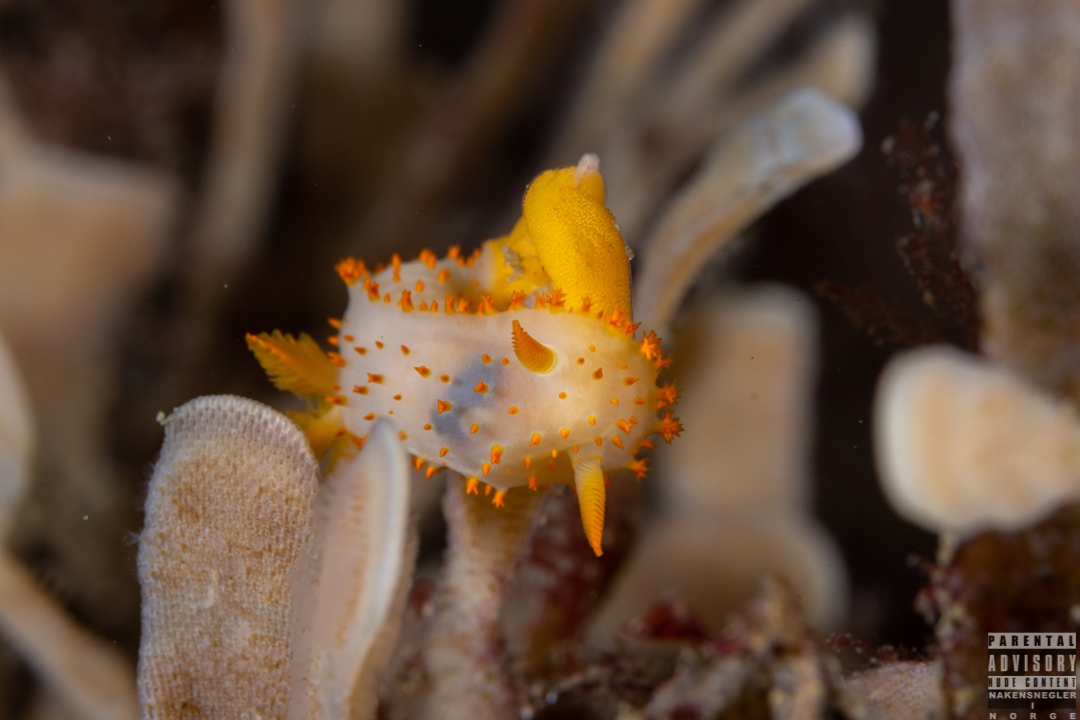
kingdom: Animalia
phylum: Mollusca
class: Gastropoda
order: Nudibranchia
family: Polyceridae
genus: Crimora
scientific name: Crimora papillata
